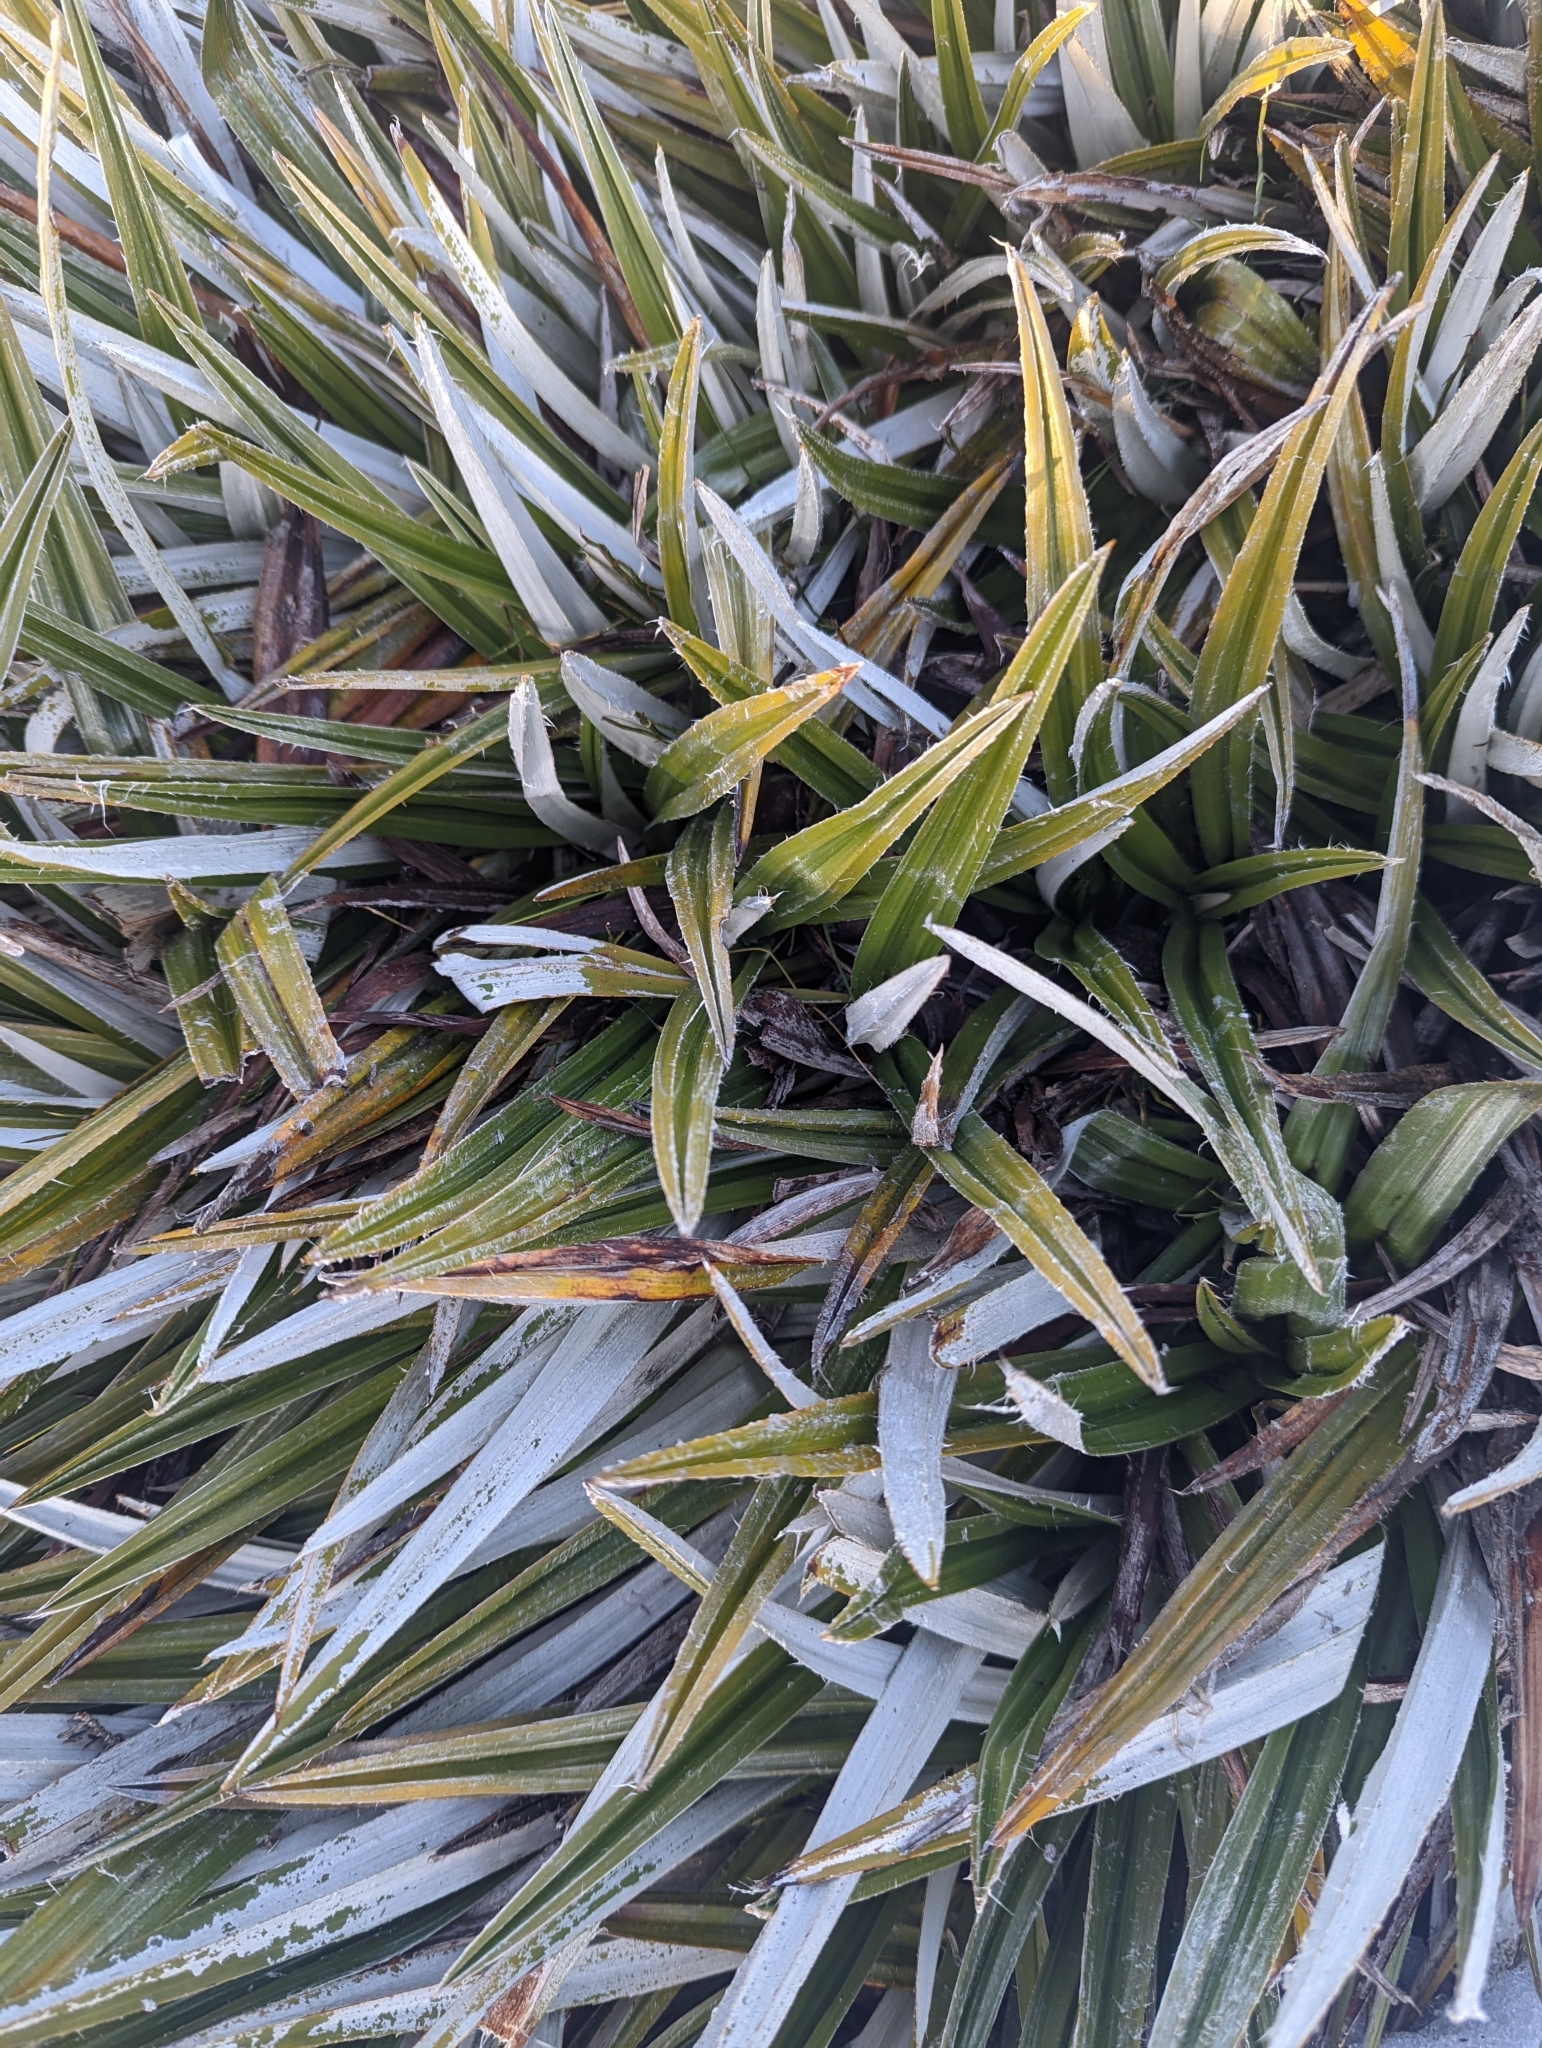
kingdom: Plantae
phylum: Tracheophyta
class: Liliopsida
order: Asparagales
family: Asteliaceae
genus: Astelia
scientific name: Astelia alpina
